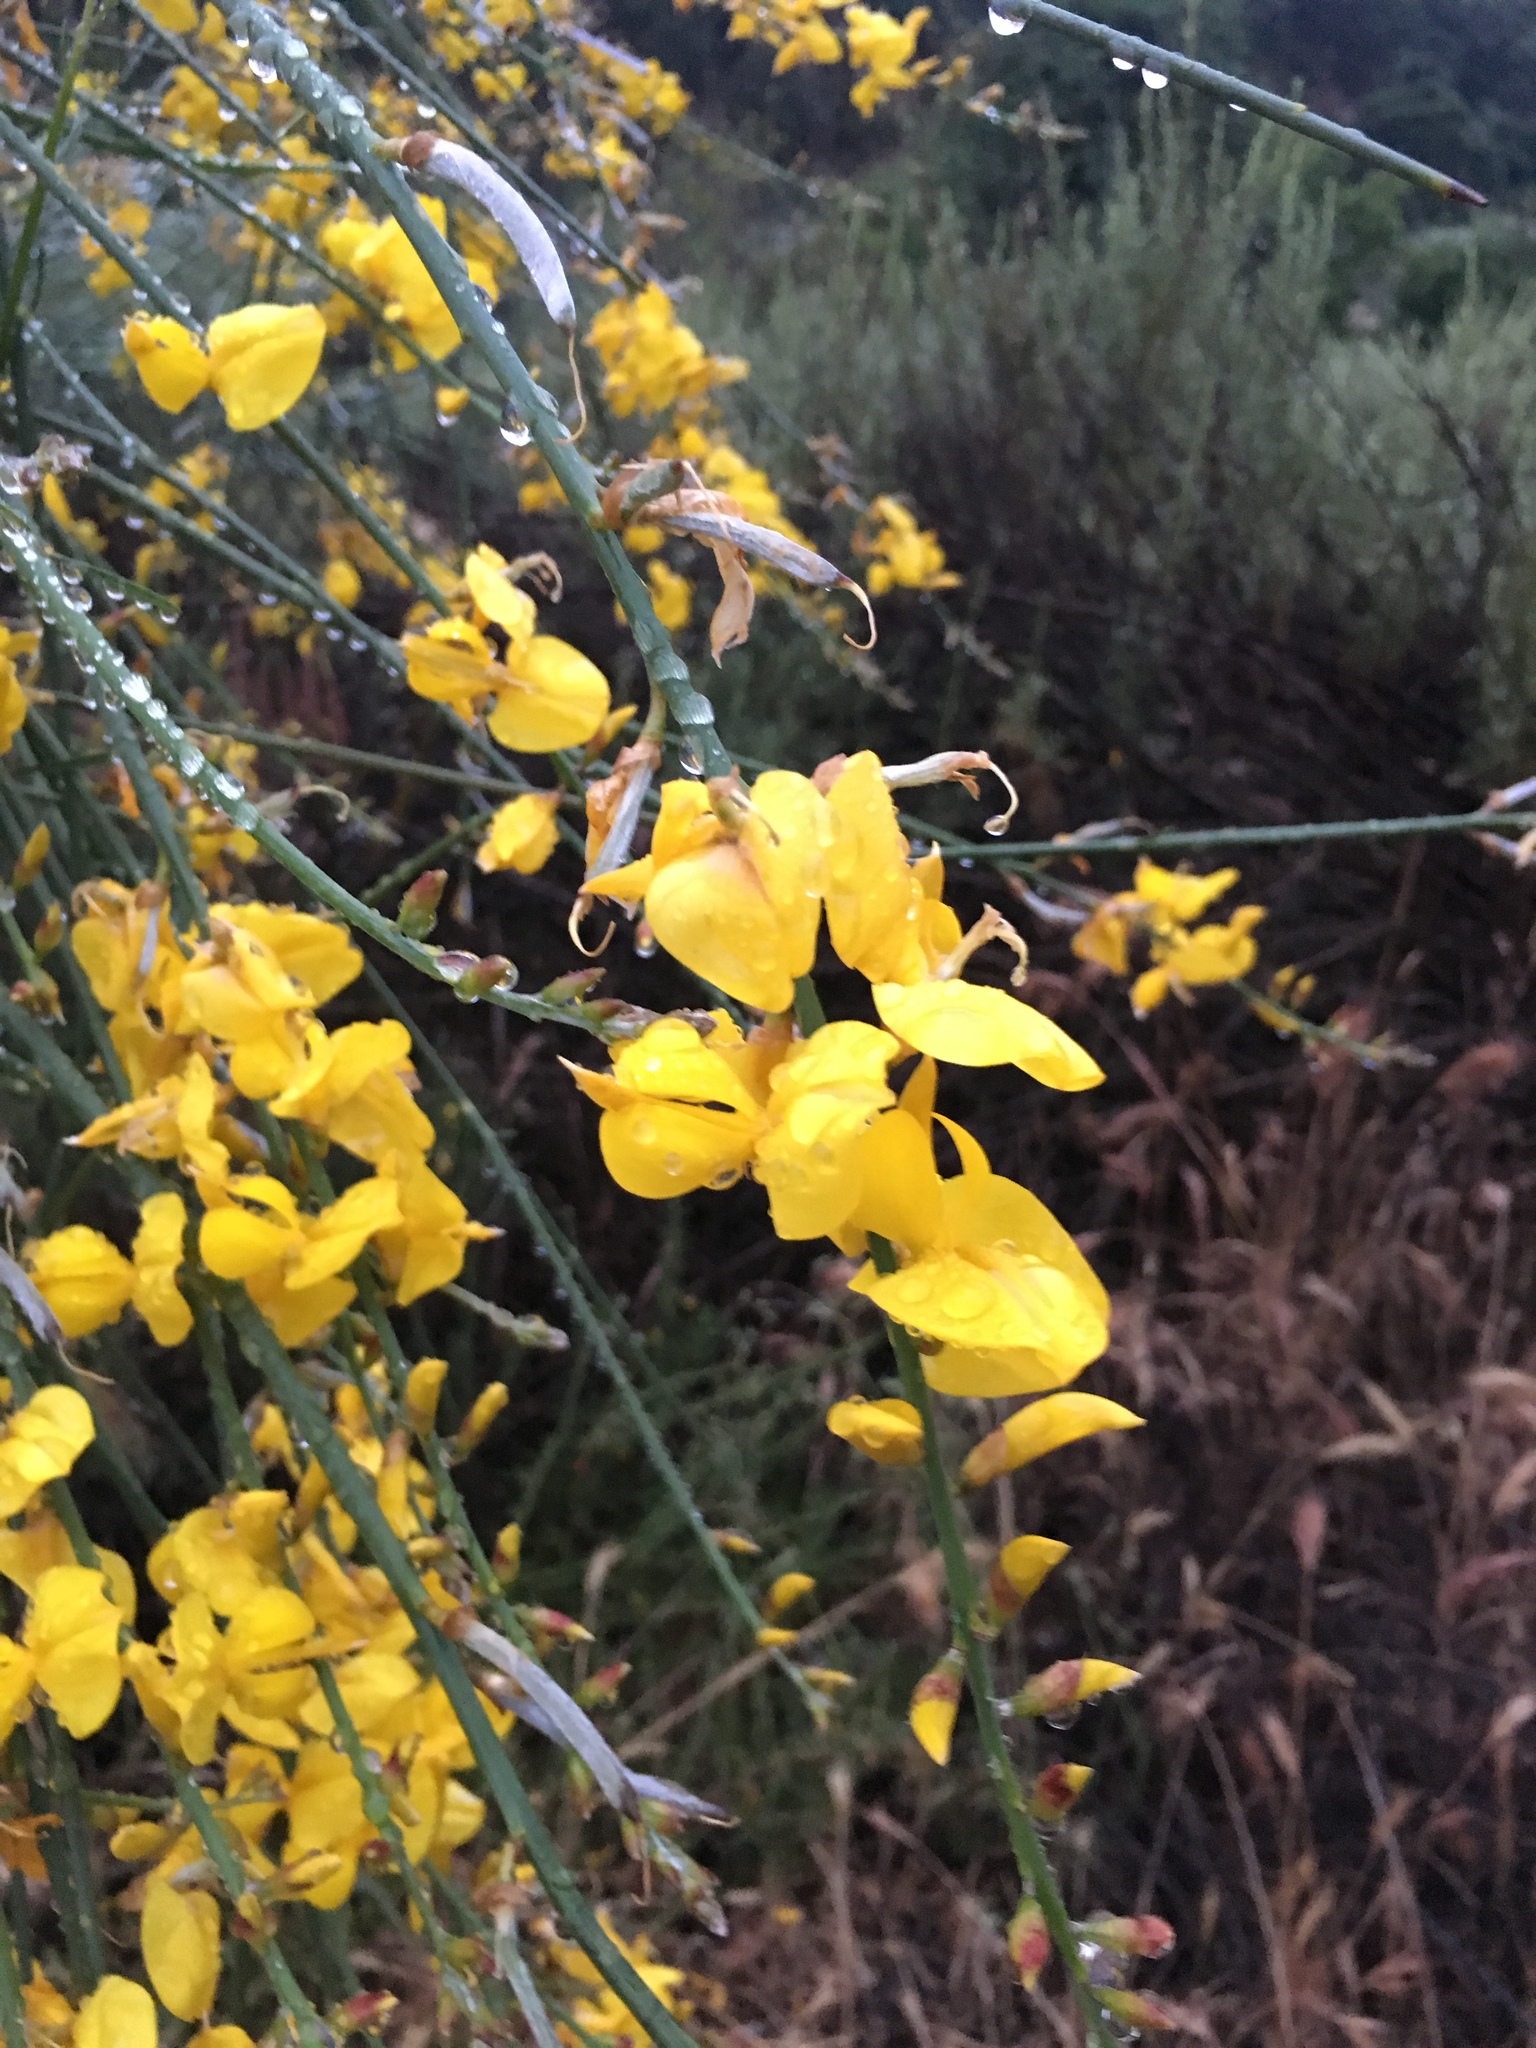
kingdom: Plantae
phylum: Tracheophyta
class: Magnoliopsida
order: Fabales
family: Fabaceae
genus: Spartium
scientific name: Spartium junceum
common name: Spanish broom
